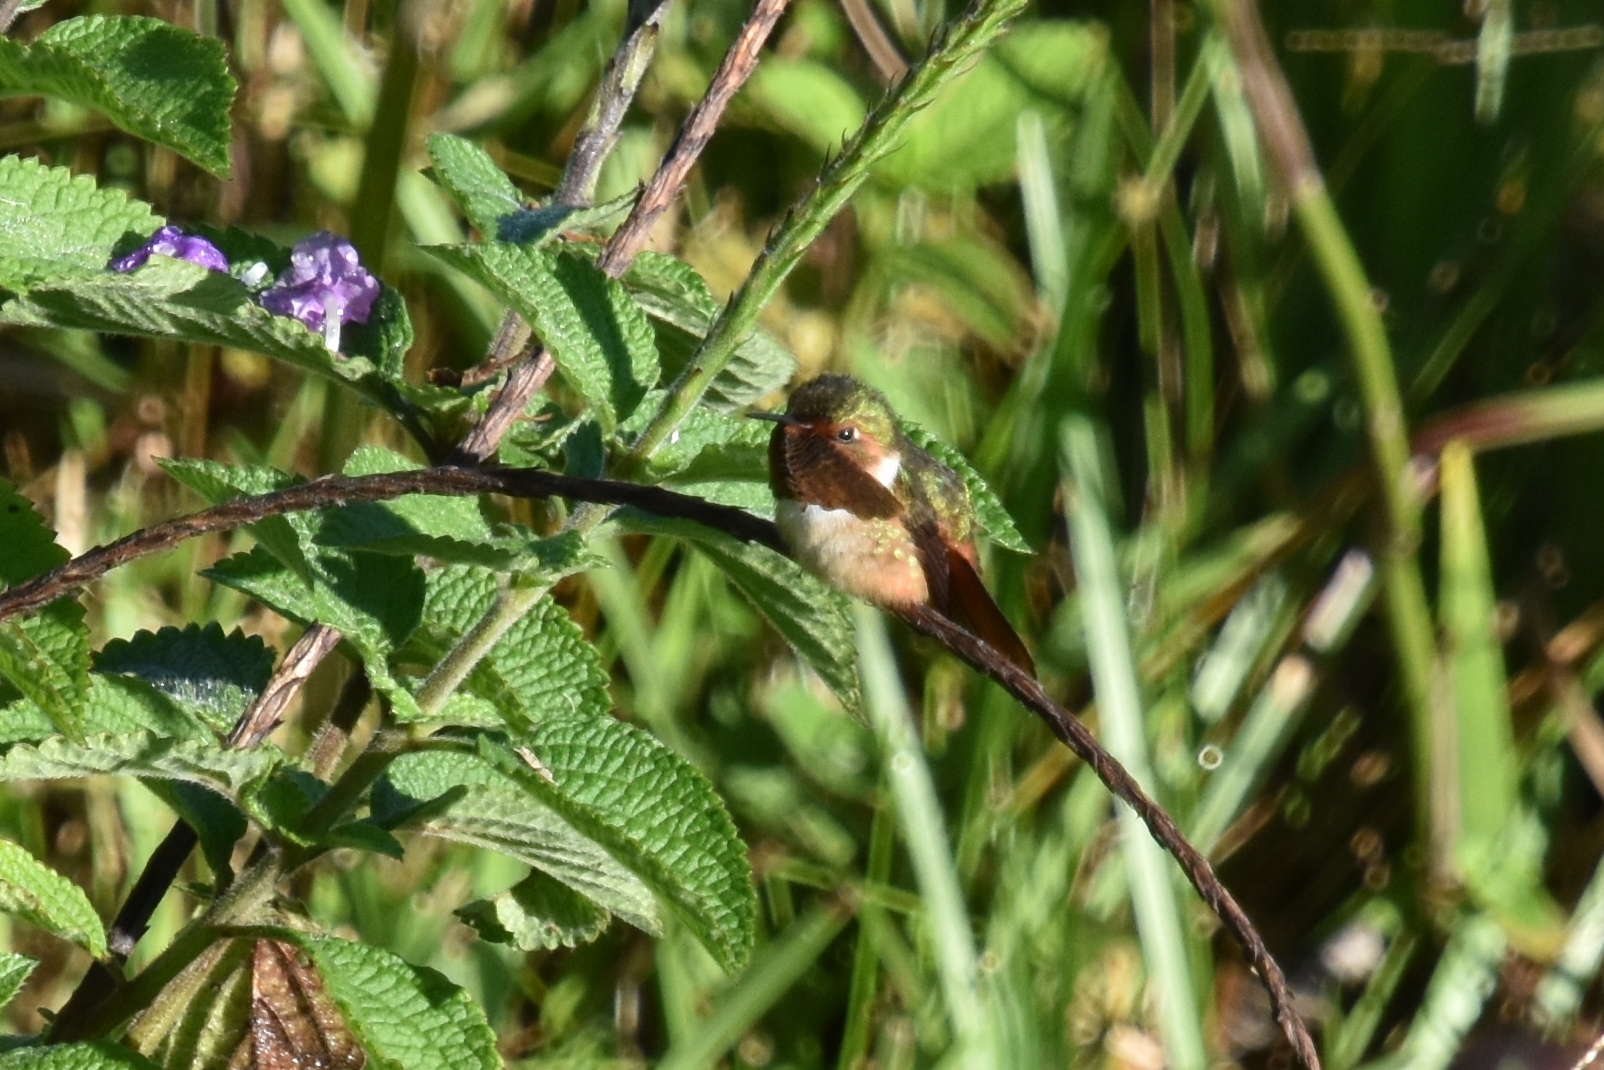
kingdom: Animalia
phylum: Chordata
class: Aves
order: Apodiformes
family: Trochilidae
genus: Selasphorus
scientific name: Selasphorus scintilla
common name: Scintillant hummingbird
